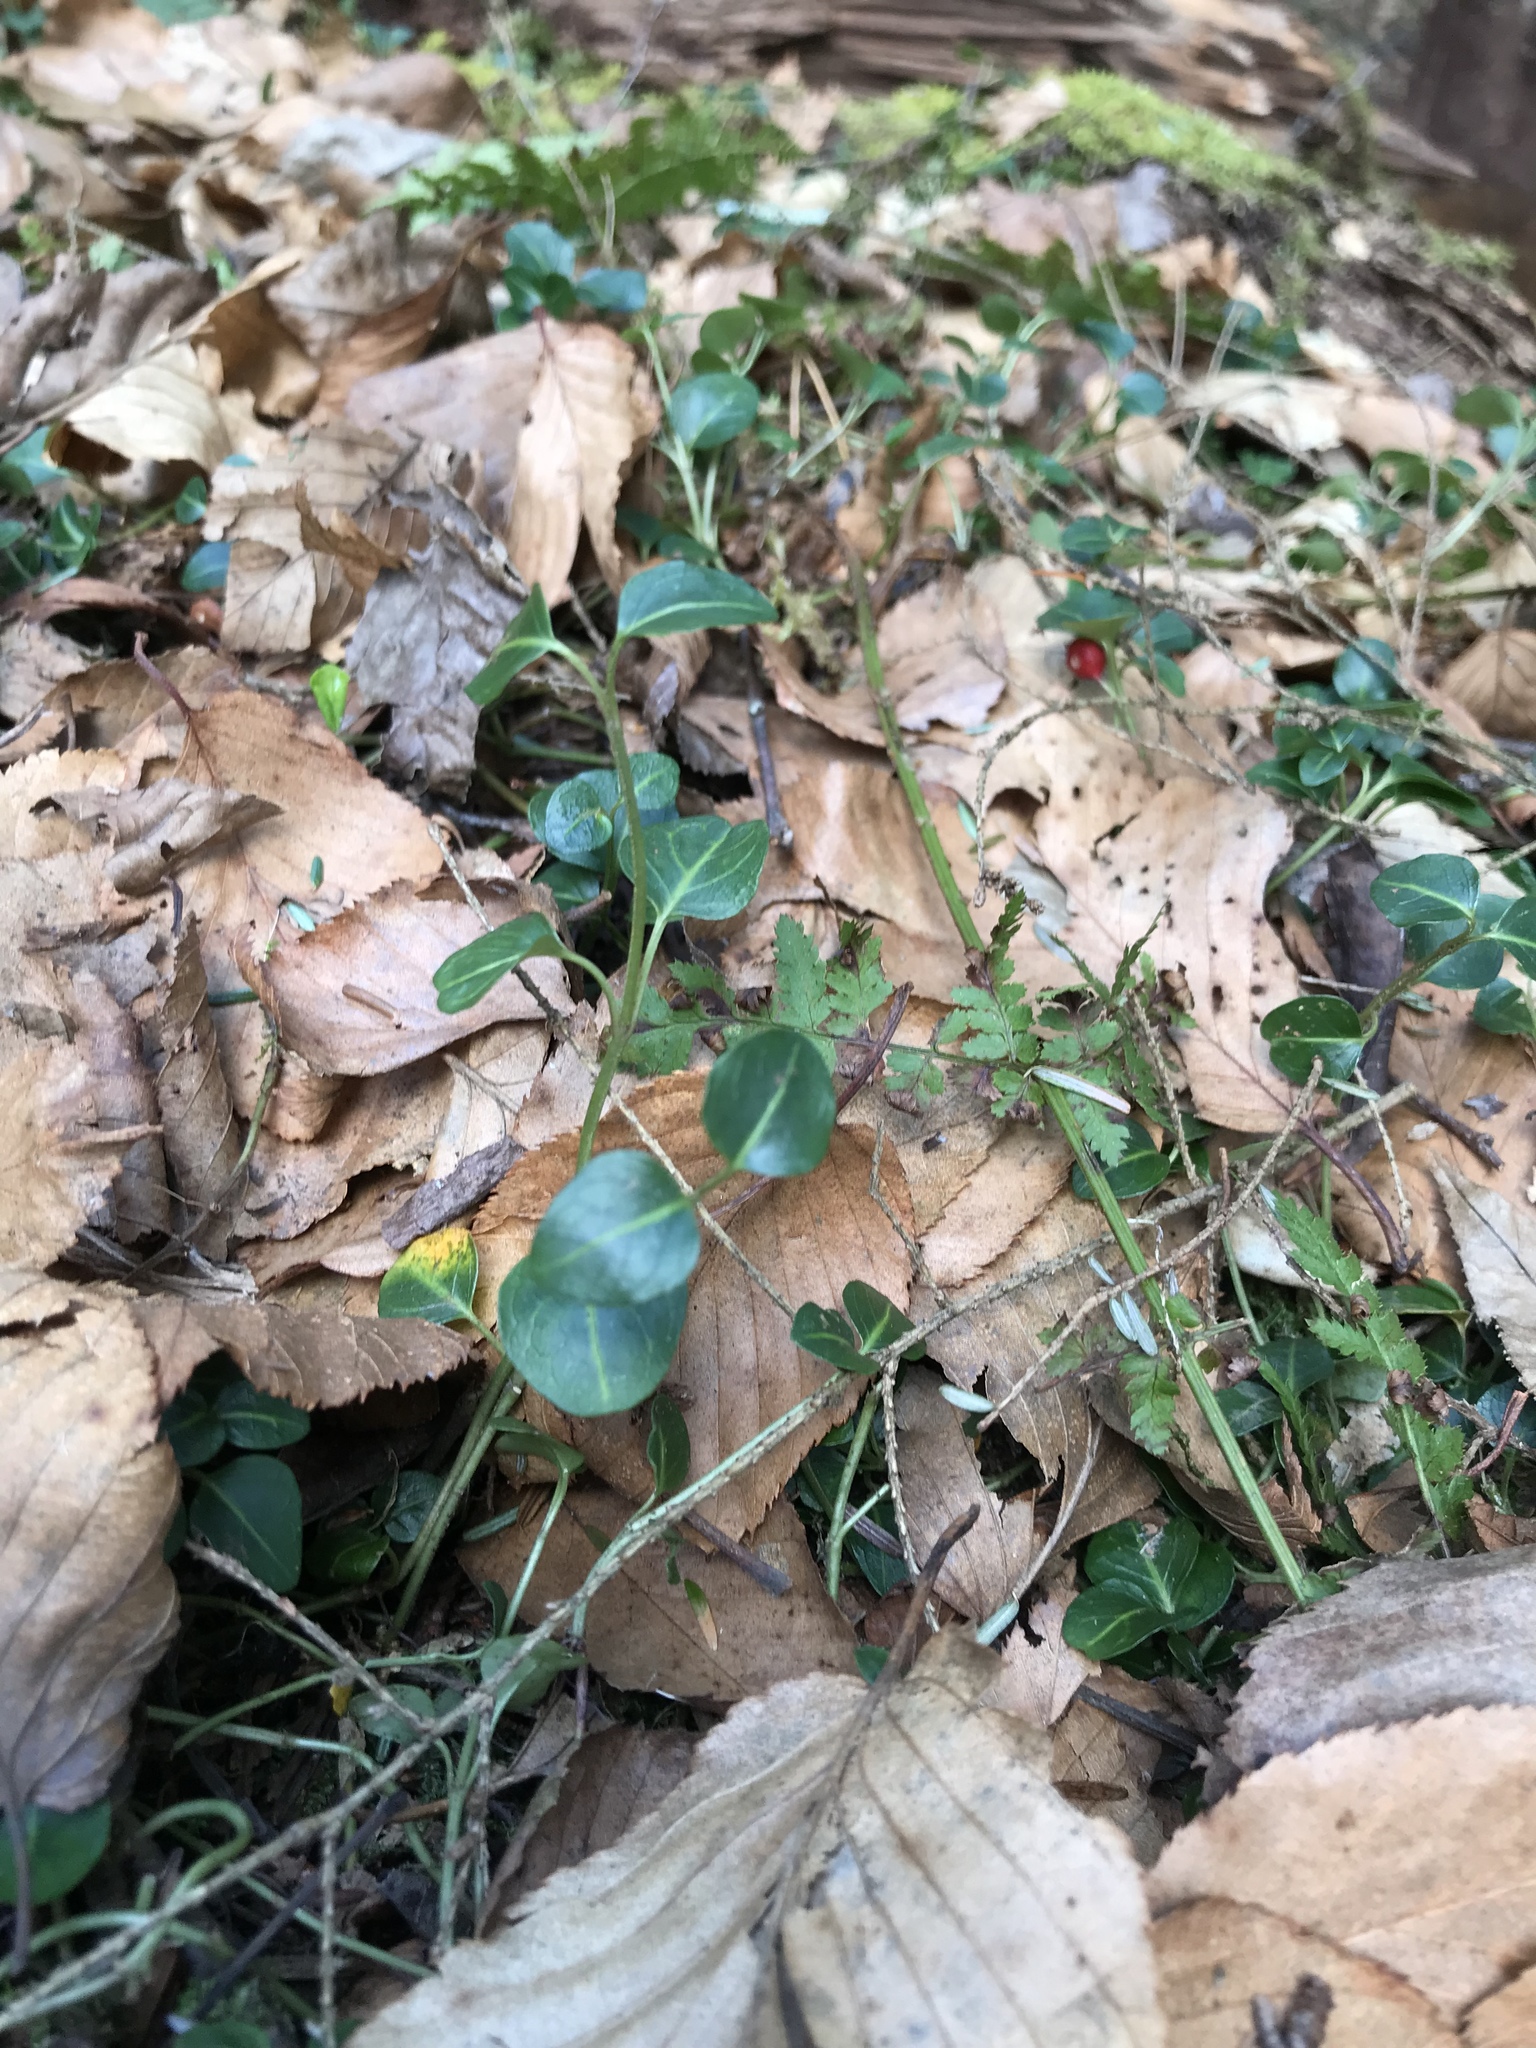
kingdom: Plantae
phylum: Tracheophyta
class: Magnoliopsida
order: Gentianales
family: Rubiaceae
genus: Mitchella
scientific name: Mitchella repens
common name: Partridge-berry
